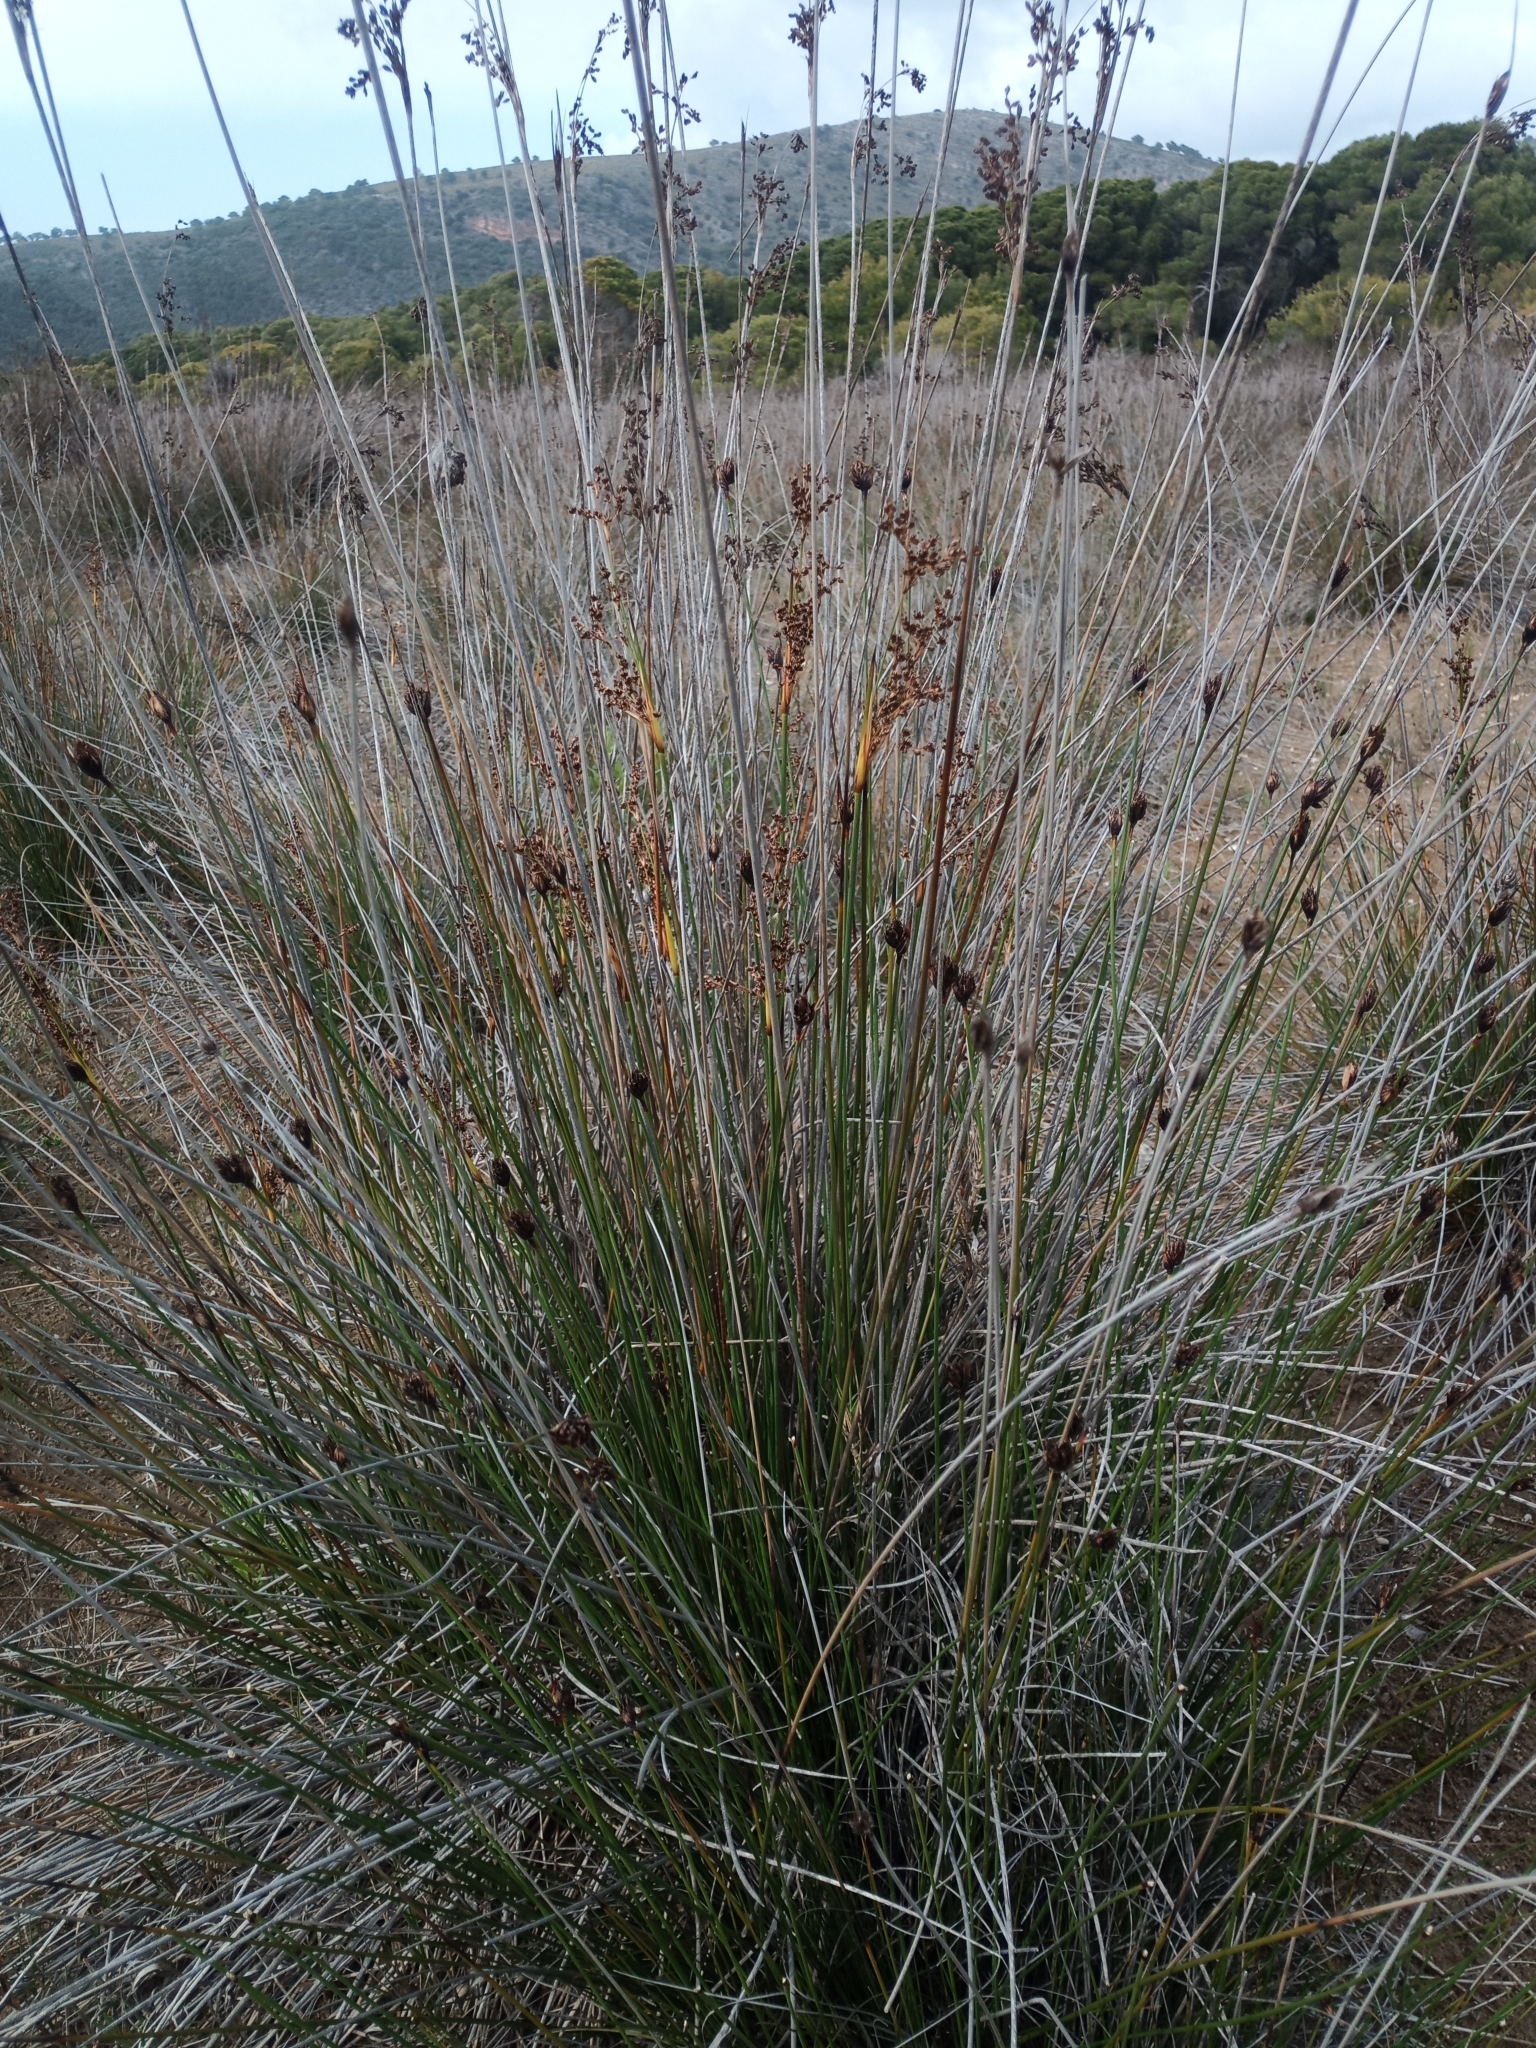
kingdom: Plantae
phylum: Tracheophyta
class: Liliopsida
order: Poales
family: Juncaceae
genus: Juncus
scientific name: Juncus acutus
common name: Sharp rush
